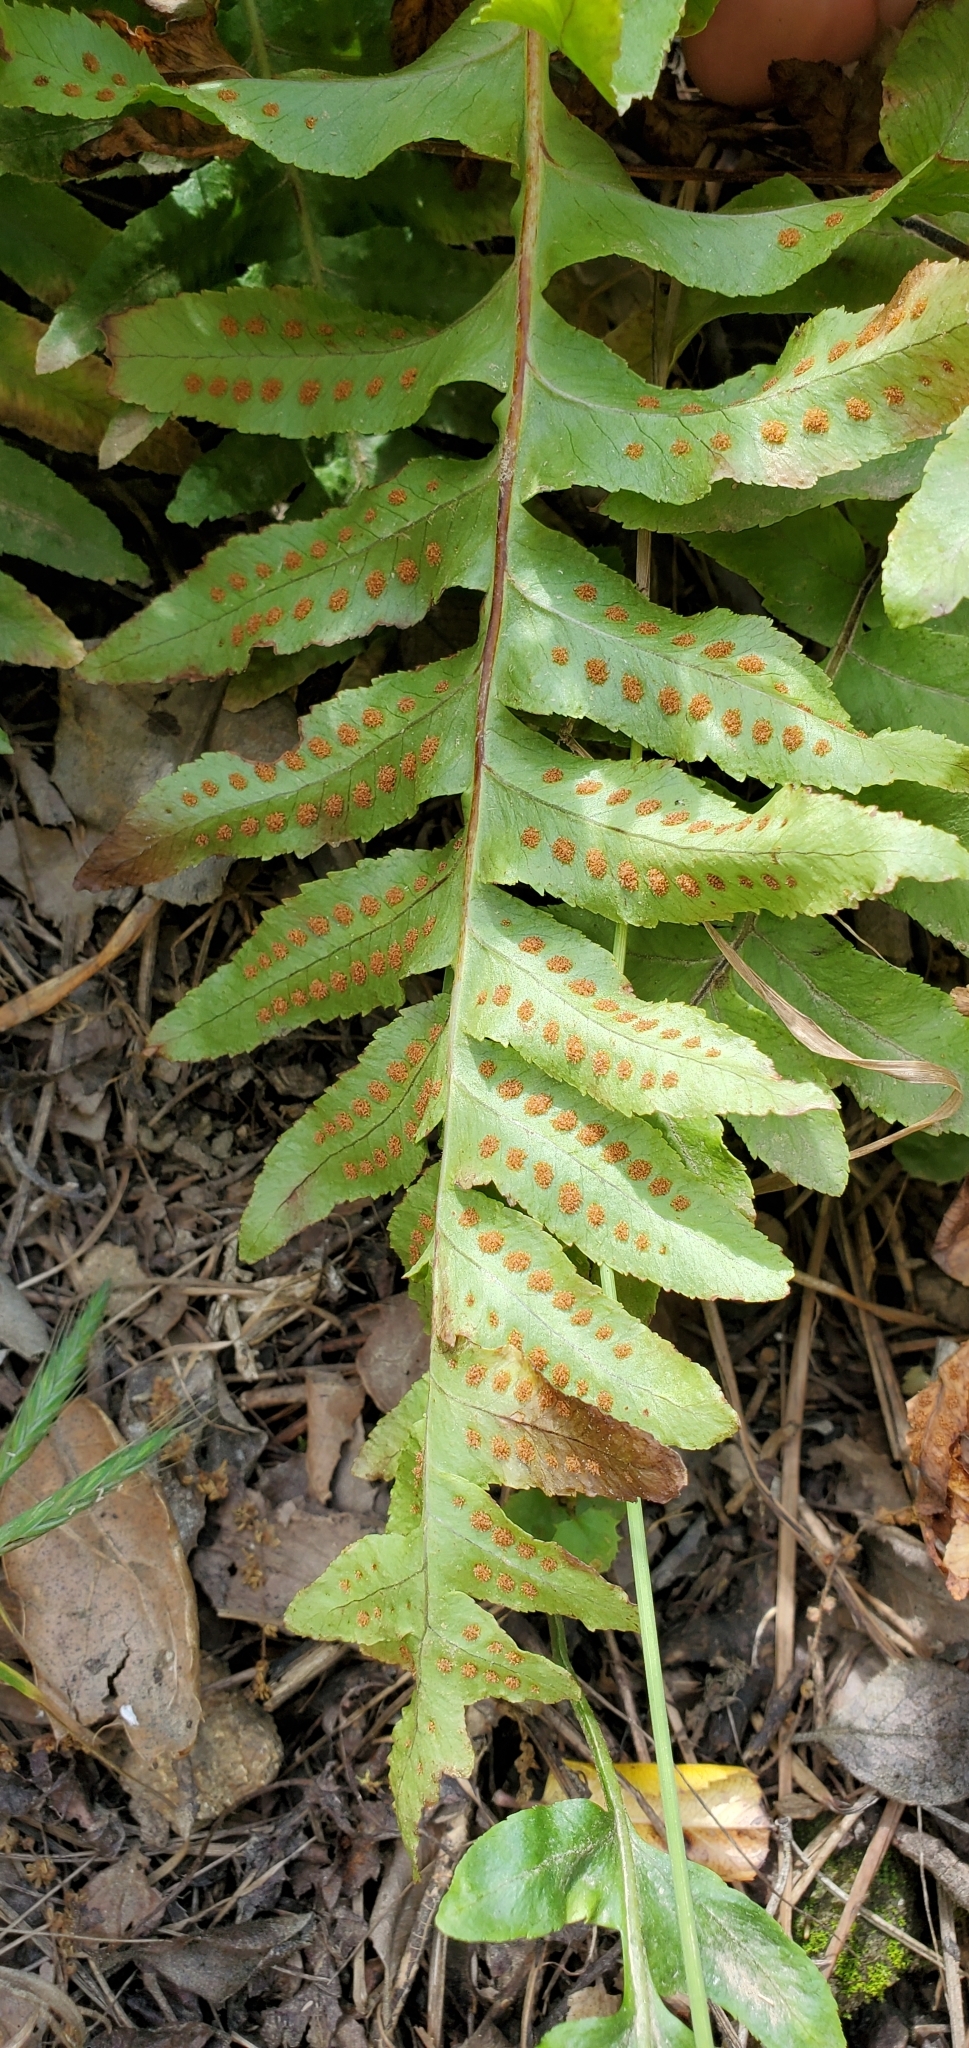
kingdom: Plantae
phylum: Tracheophyta
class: Polypodiopsida
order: Polypodiales
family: Polypodiaceae
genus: Polypodium
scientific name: Polypodium californicum
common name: California polypody
